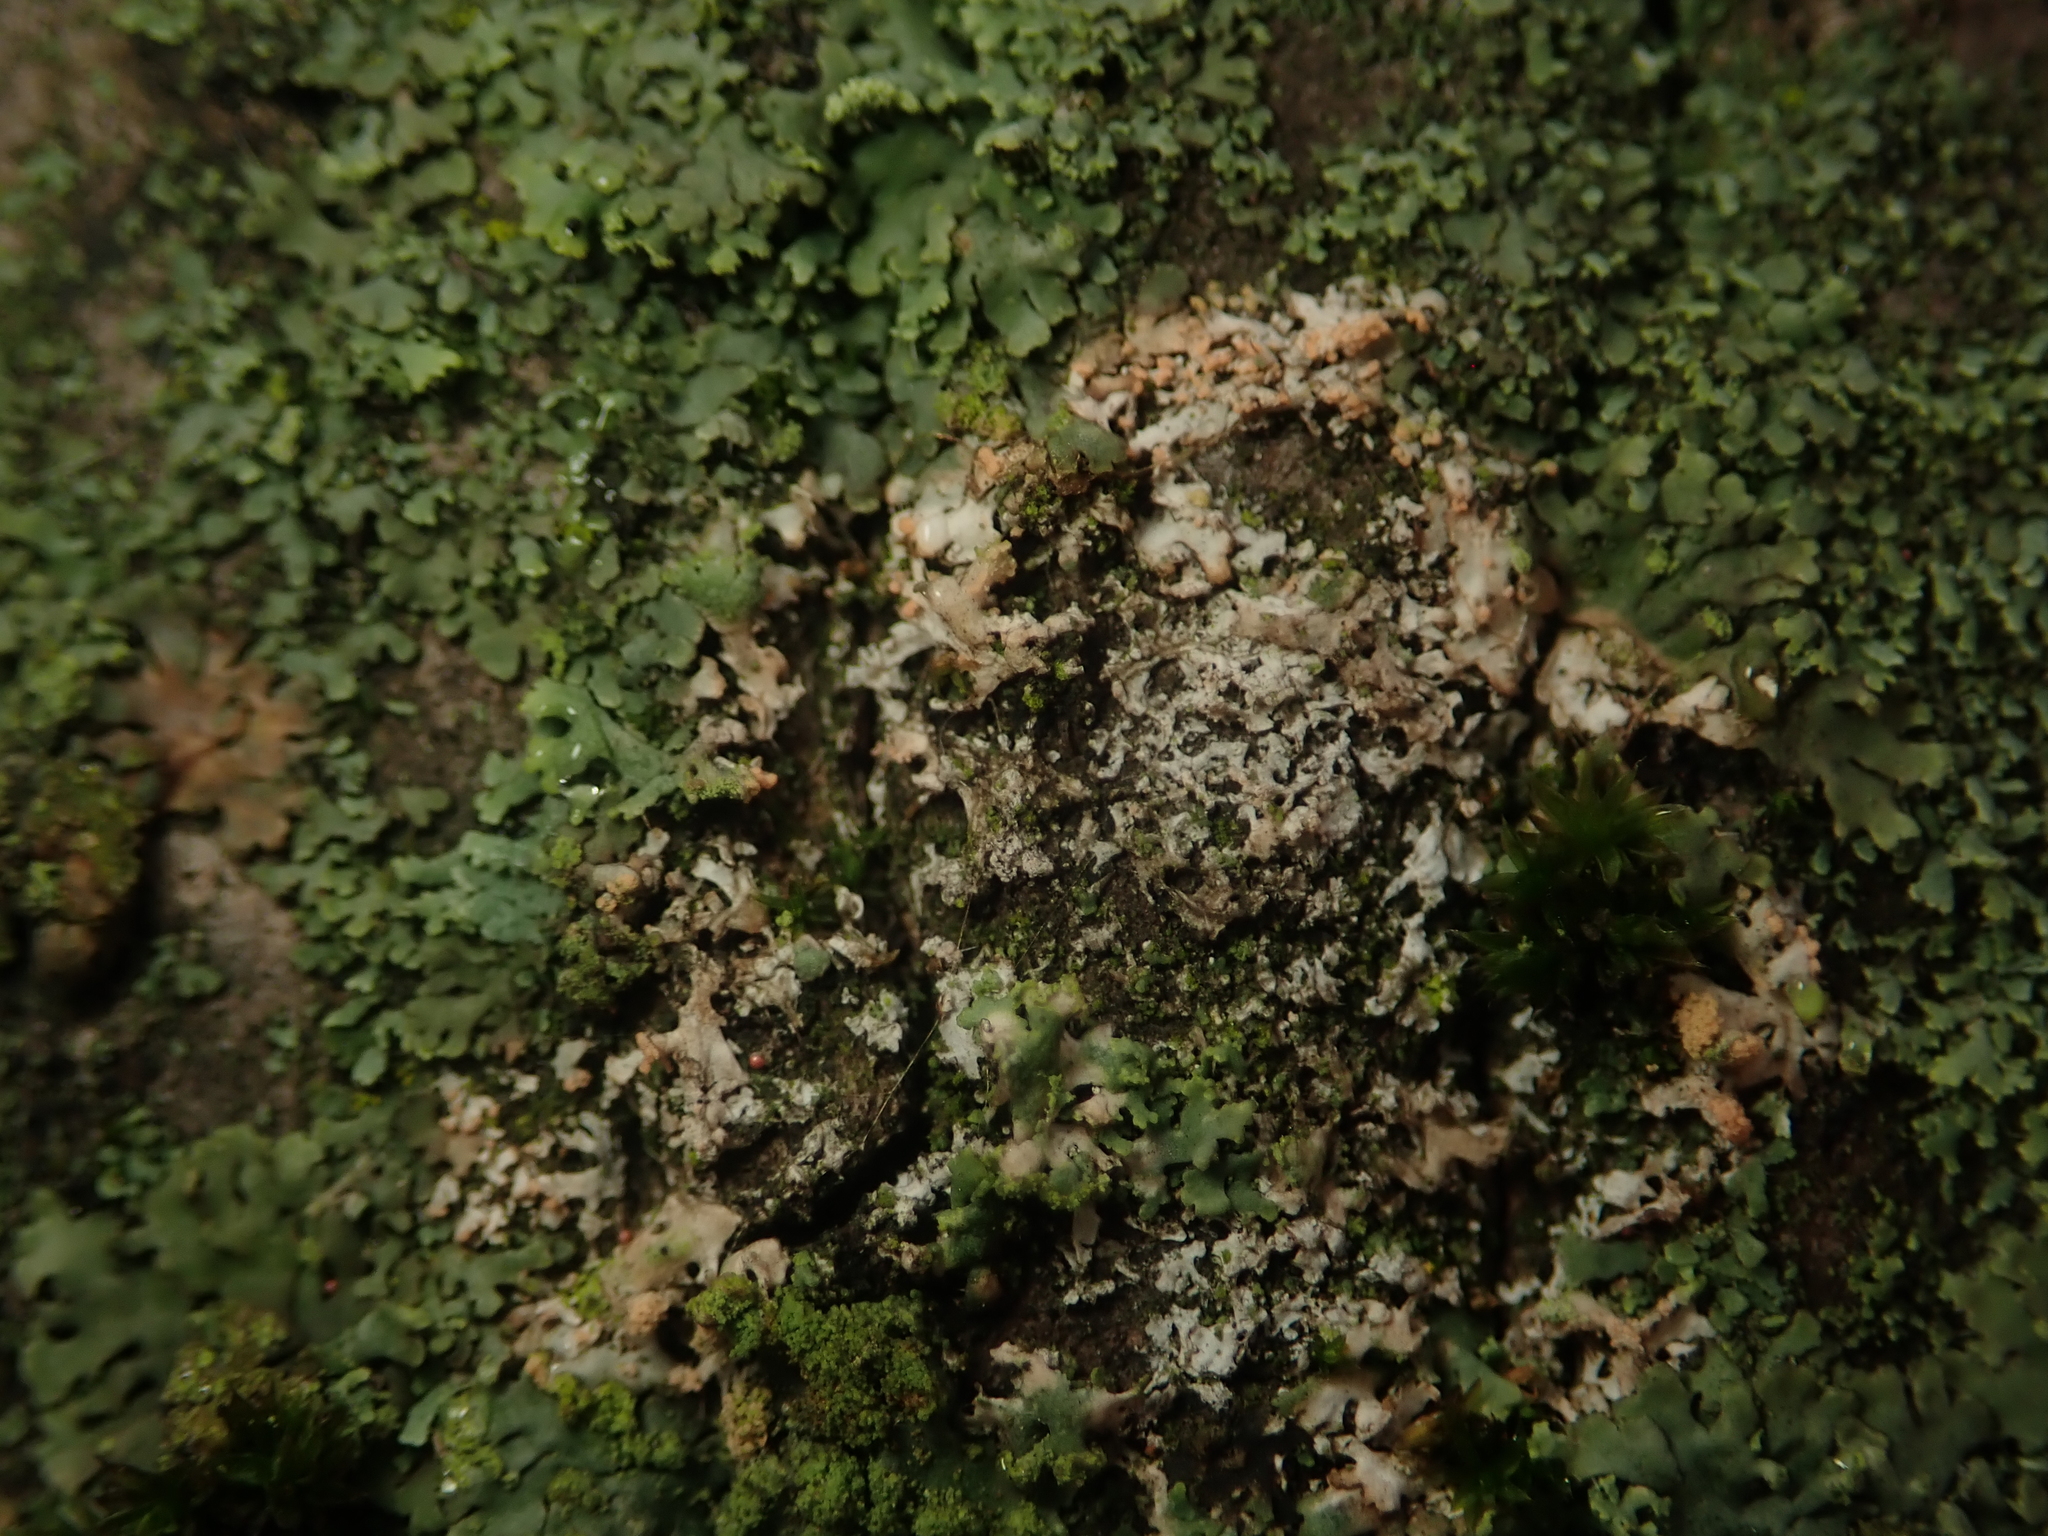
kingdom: Fungi
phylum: Basidiomycota
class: Agaricomycetes
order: Corticiales
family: Corticiaceae
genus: Erythricium
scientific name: Erythricium aurantiacum
